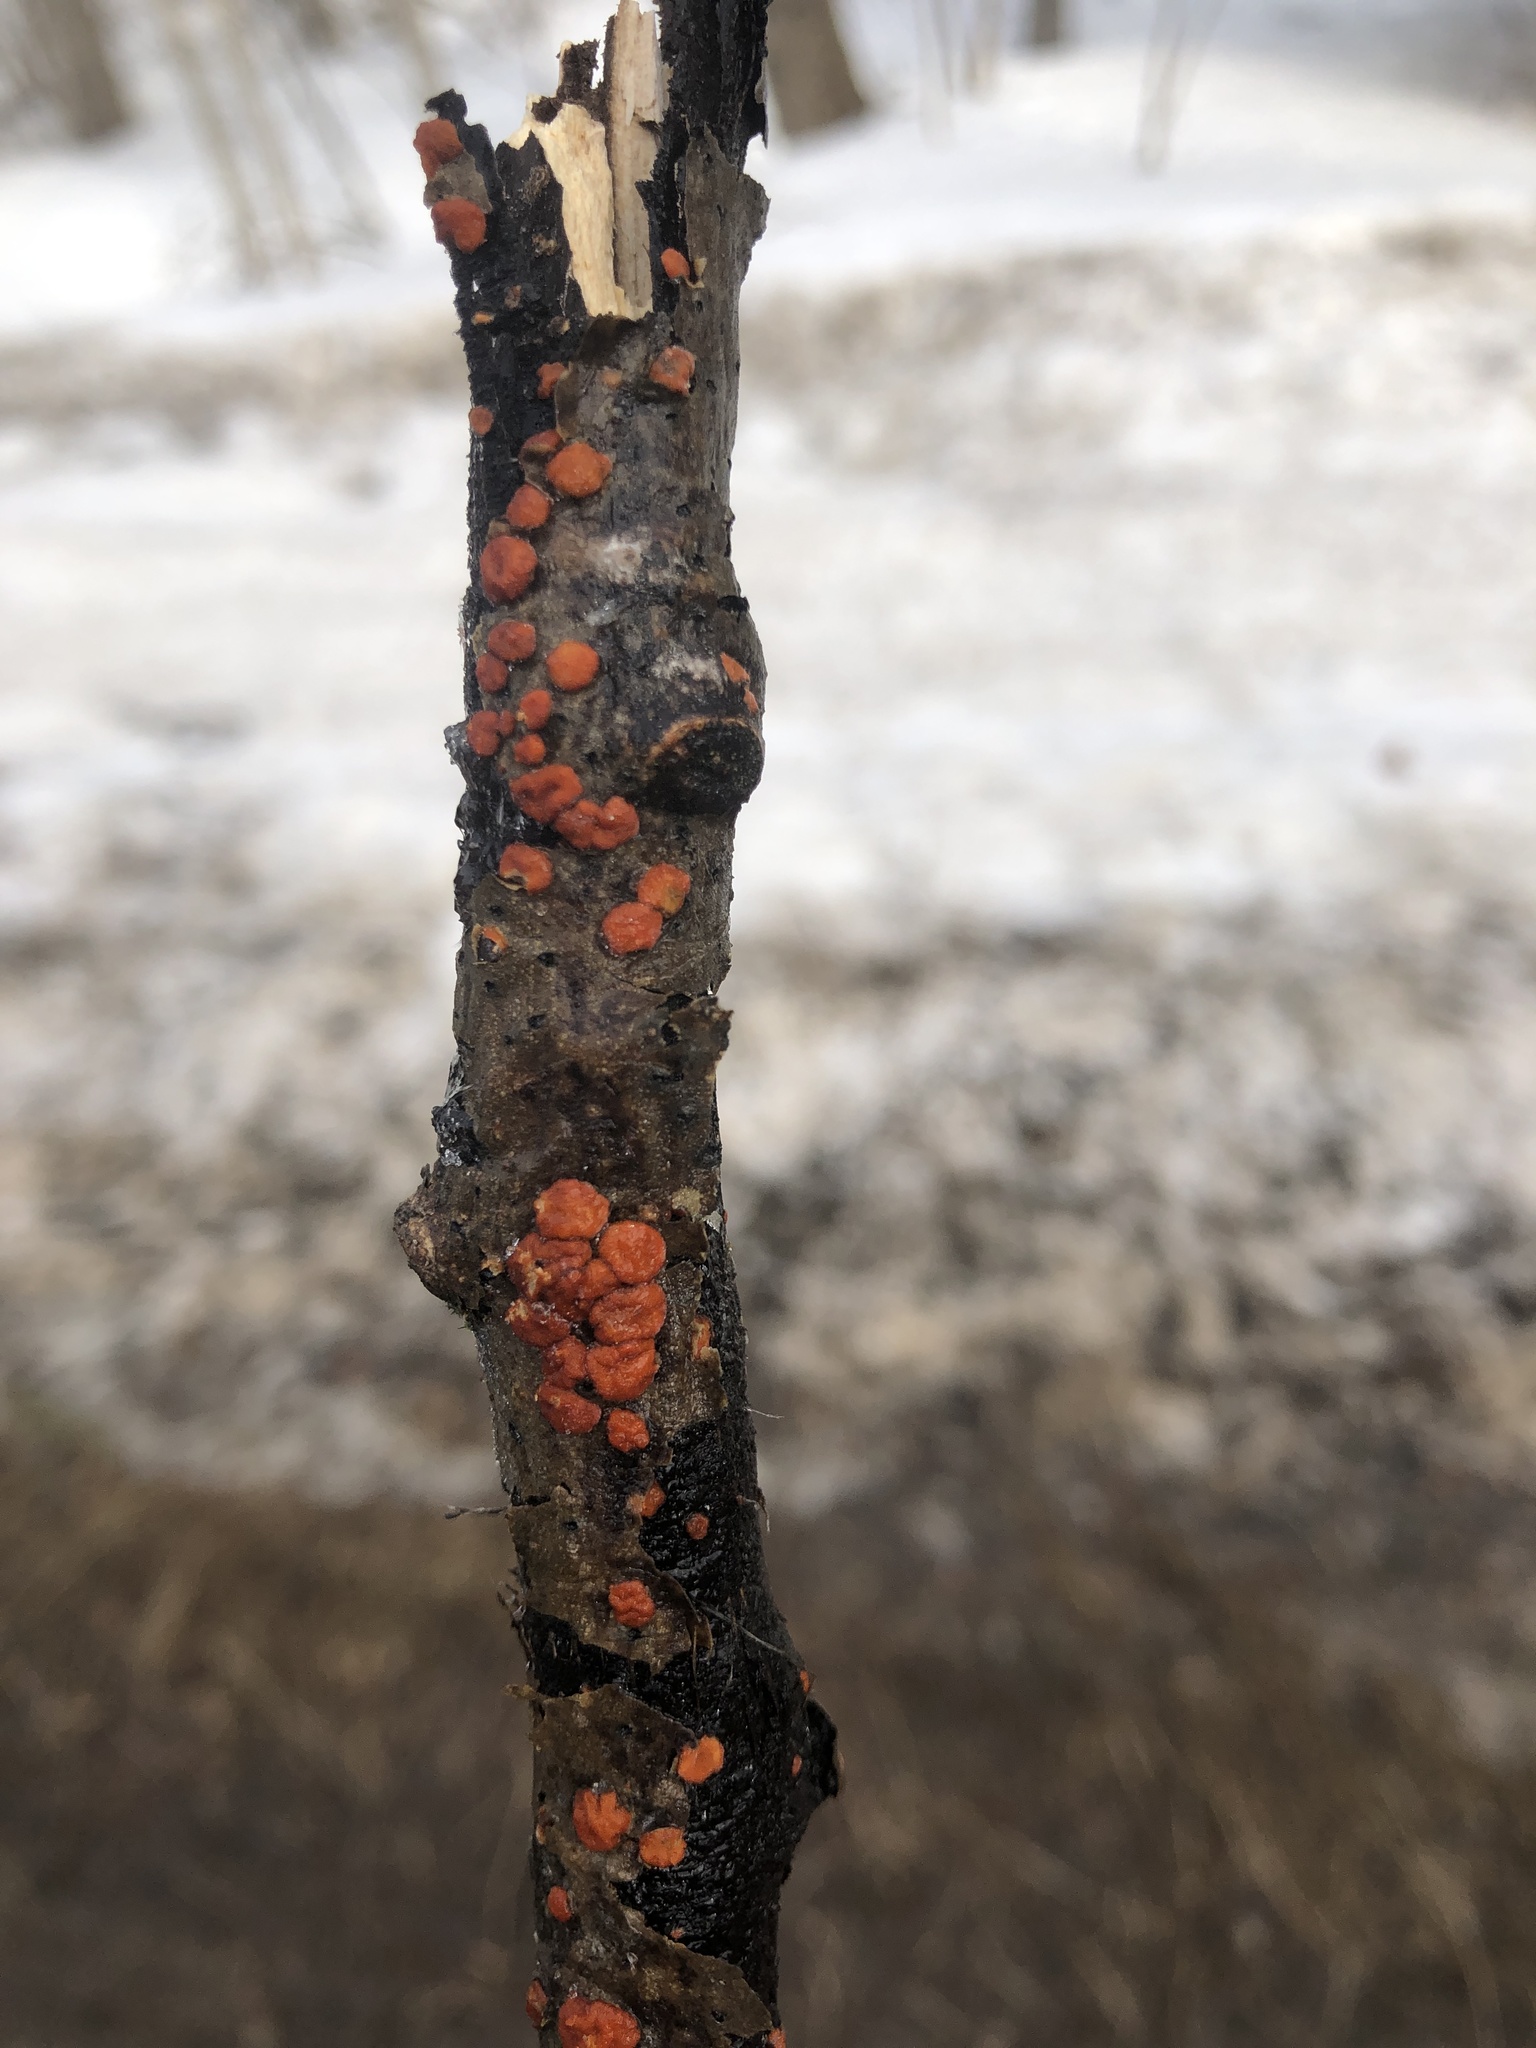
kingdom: Fungi
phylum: Basidiomycota
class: Agaricomycetes
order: Russulales
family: Peniophoraceae
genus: Peniophora
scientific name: Peniophora rufa
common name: Red tree brain fungus
